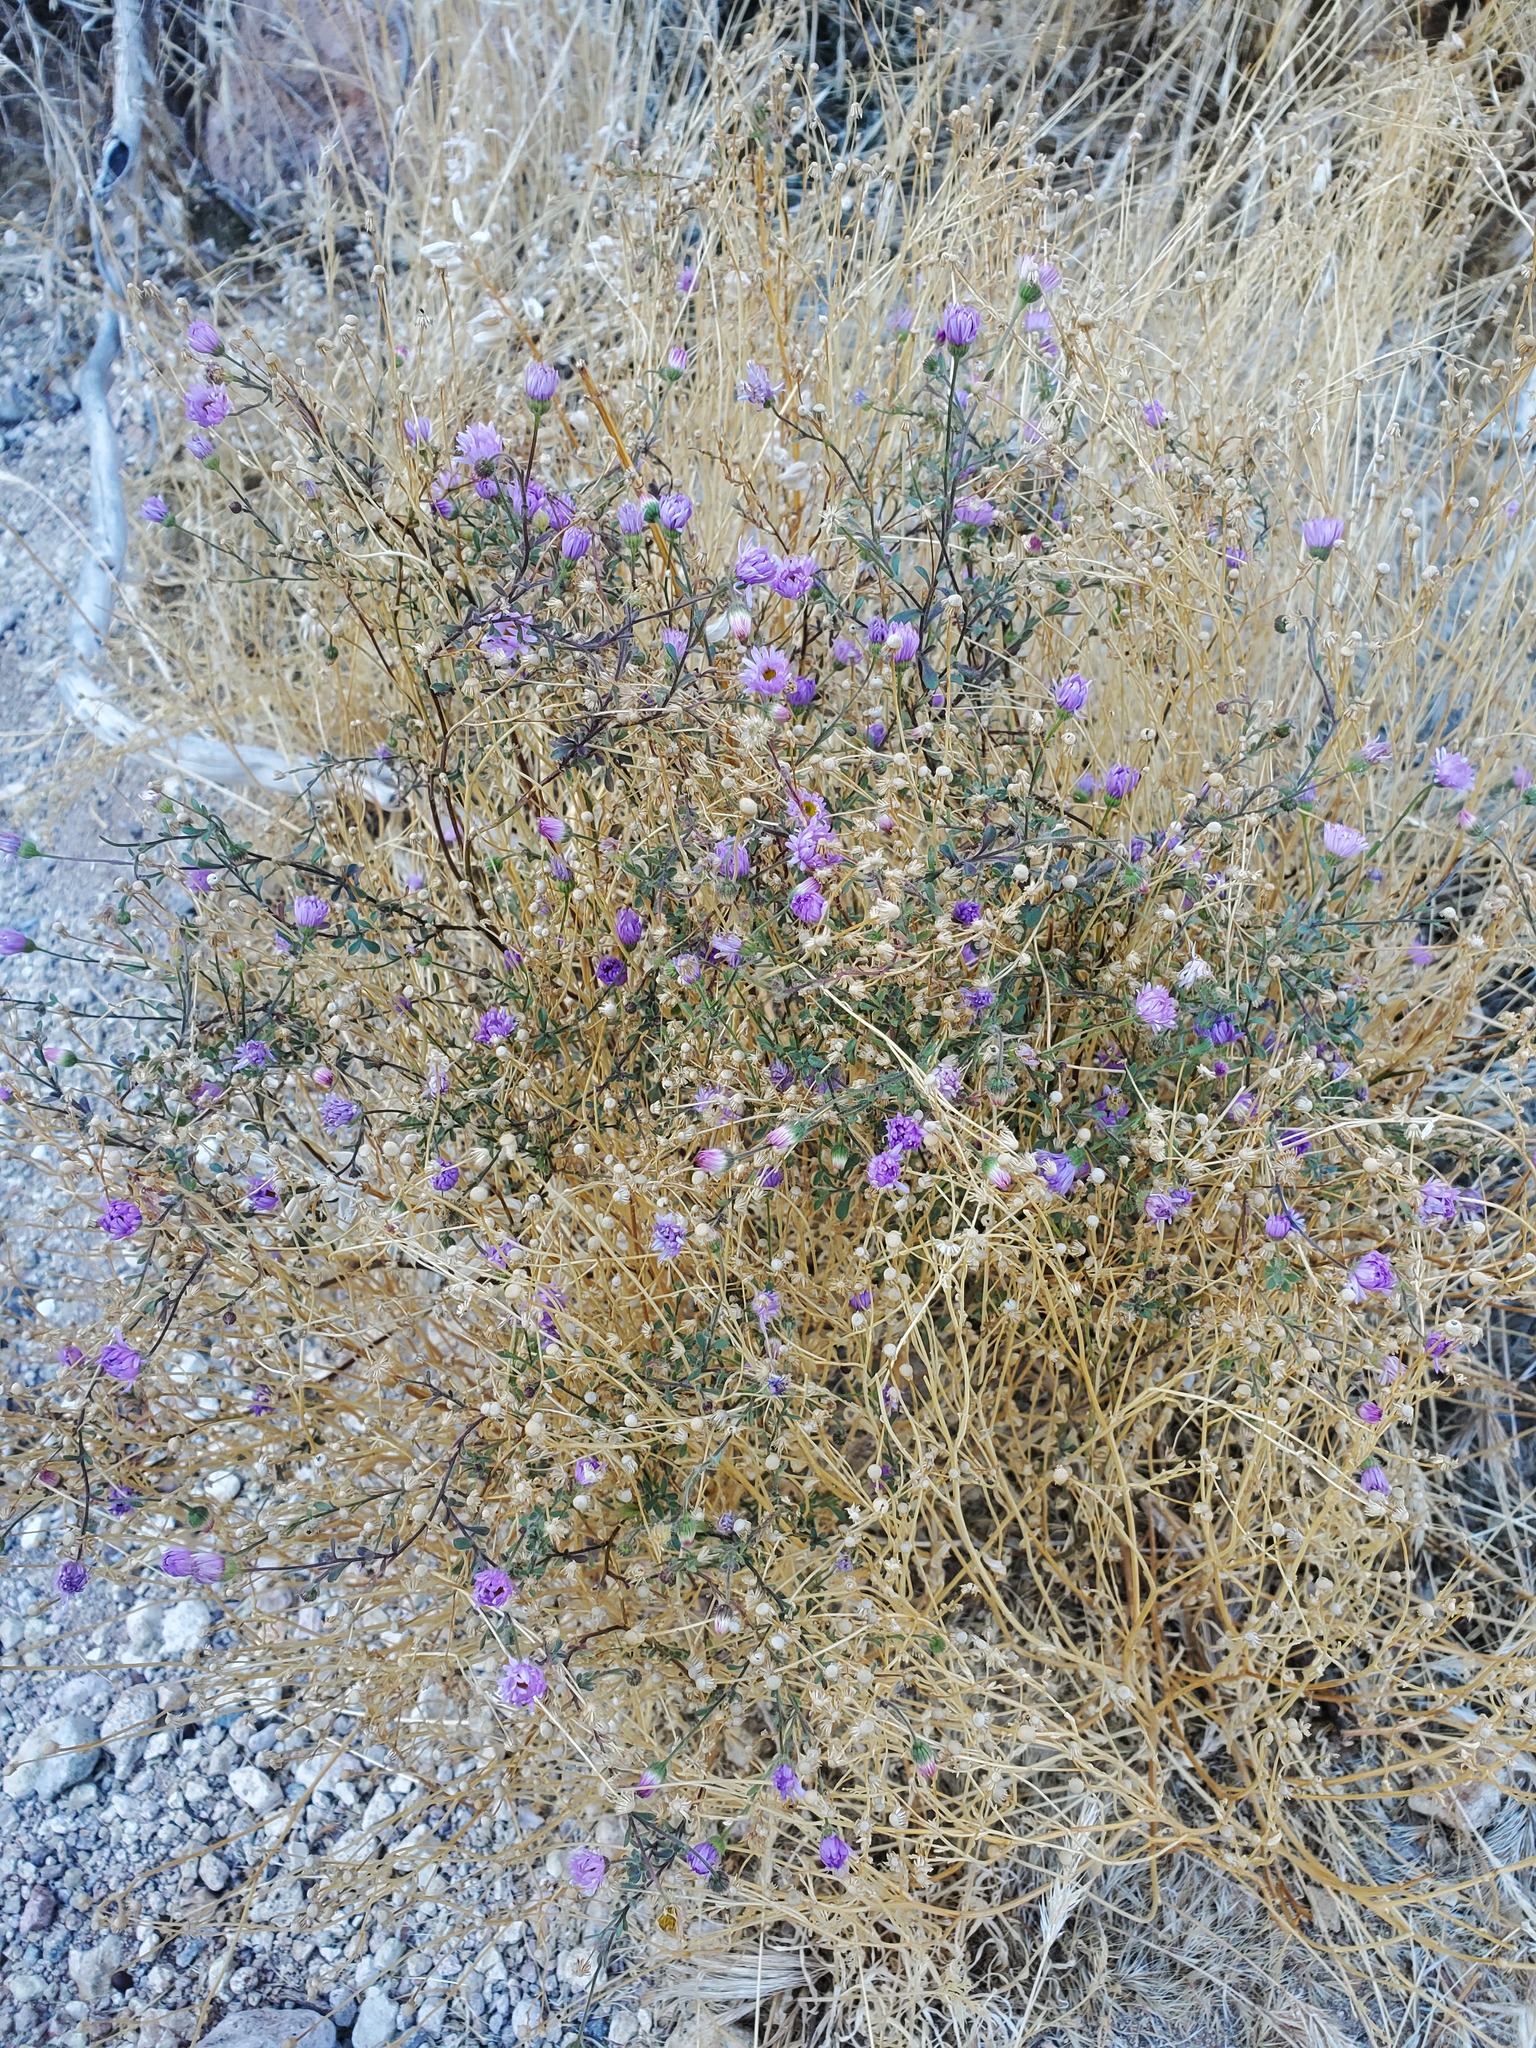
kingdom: Plantae
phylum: Tracheophyta
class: Magnoliopsida
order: Asterales
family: Asteraceae
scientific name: Asteraceae
